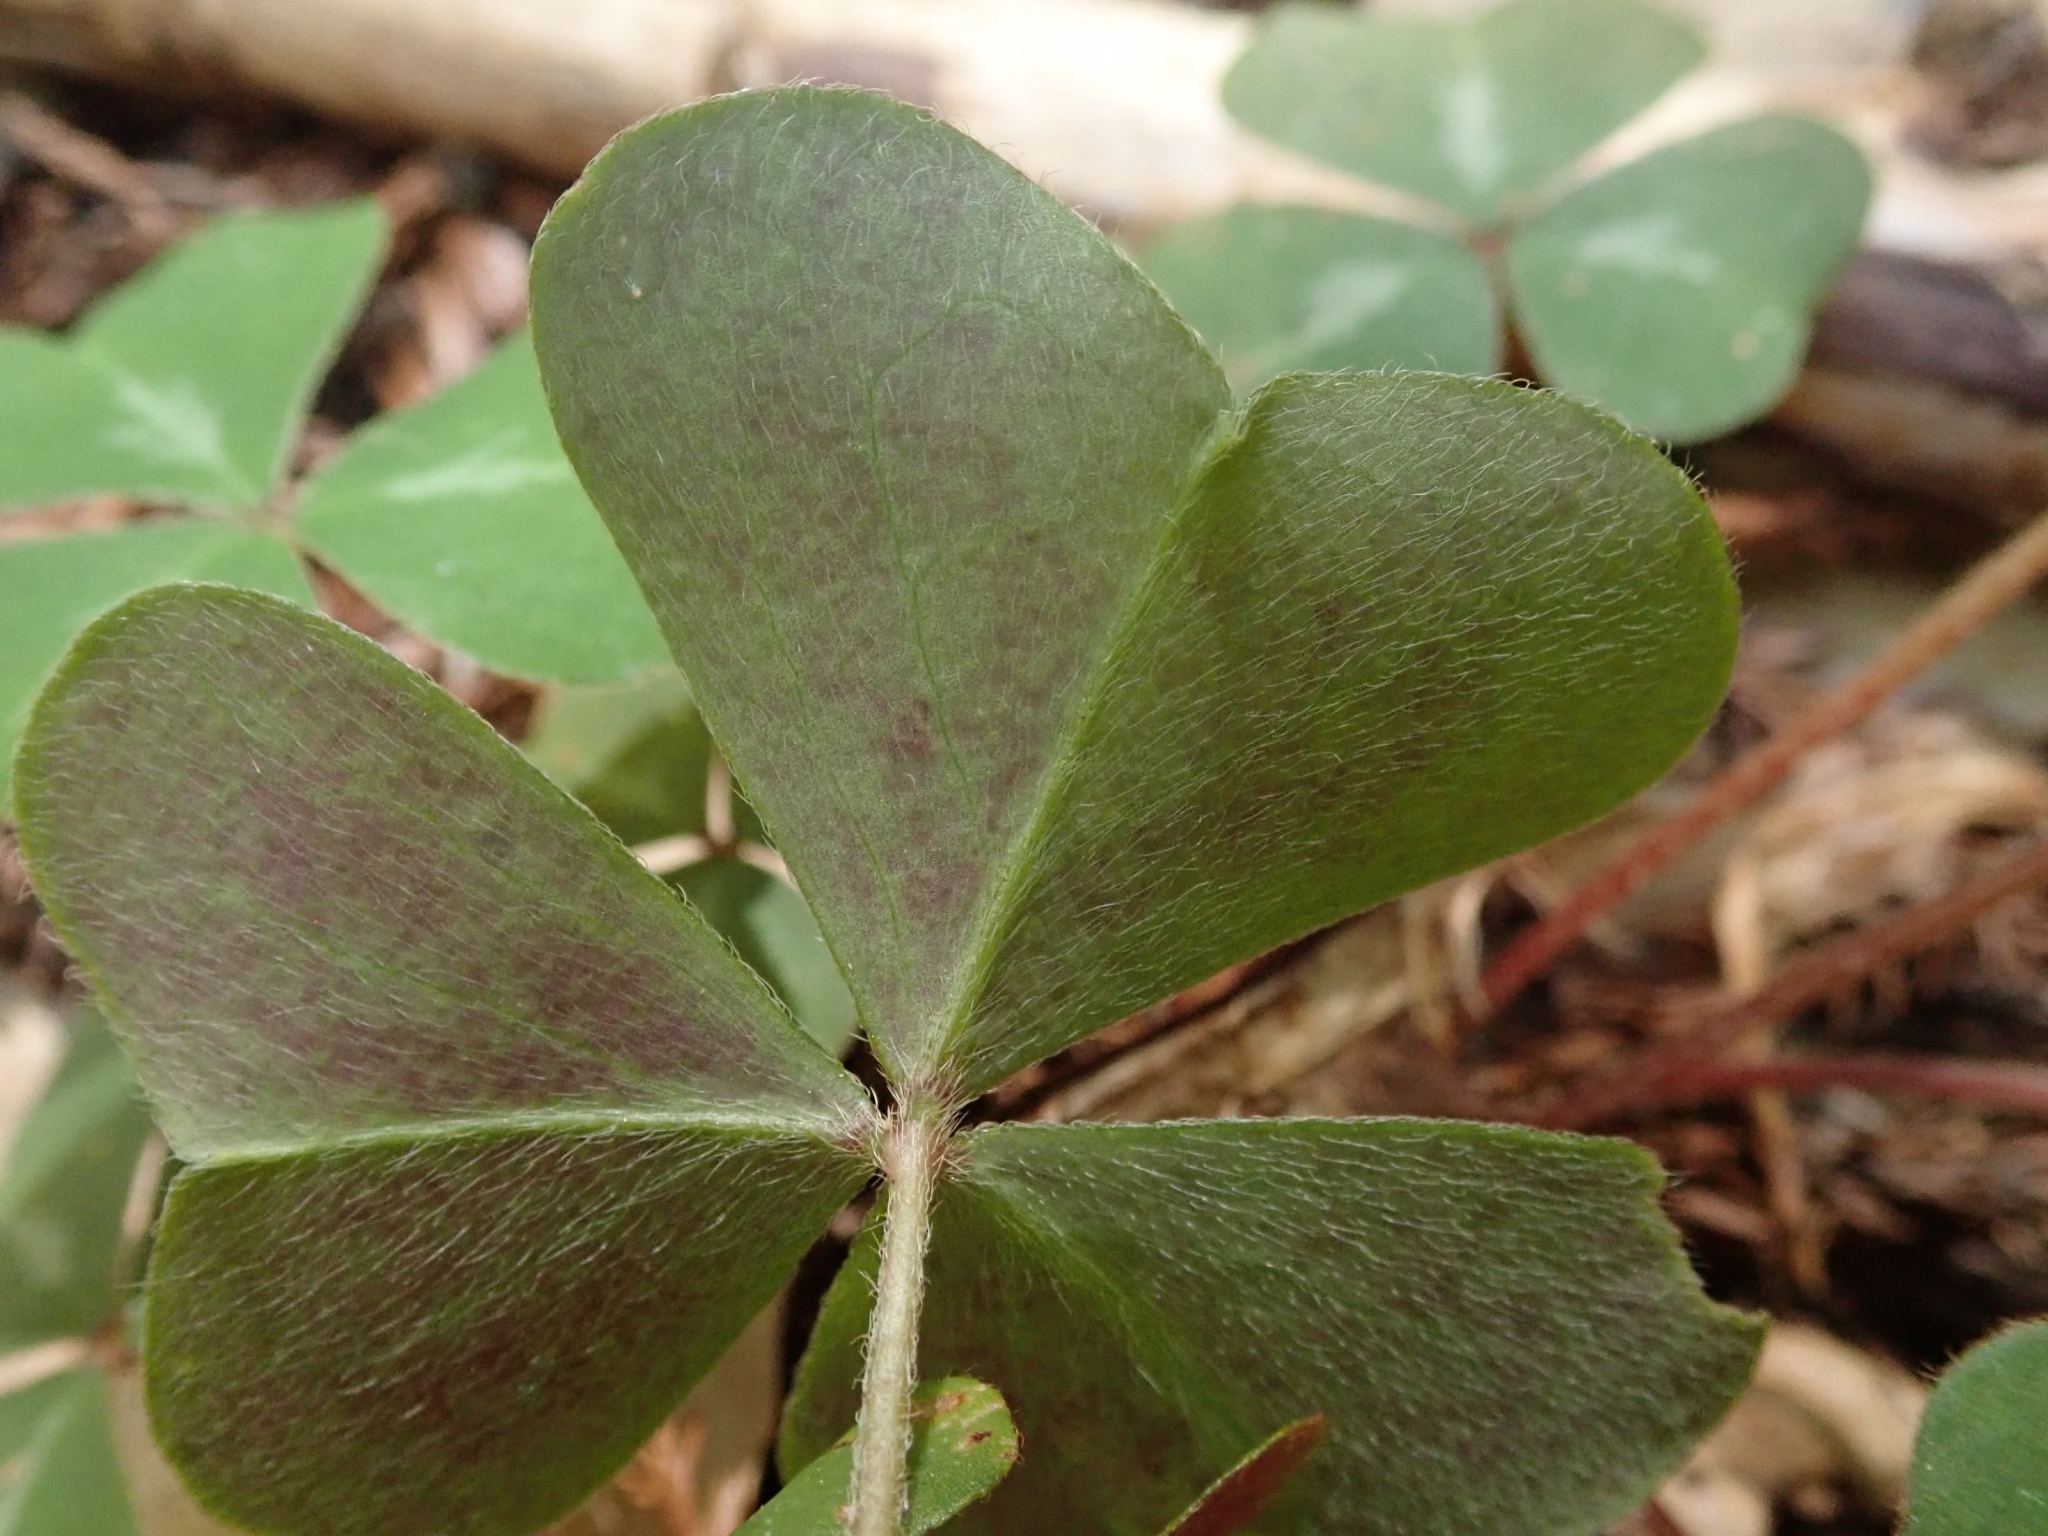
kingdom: Plantae
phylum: Tracheophyta
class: Magnoliopsida
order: Oxalidales
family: Oxalidaceae
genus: Oxalis
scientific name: Oxalis oregana
